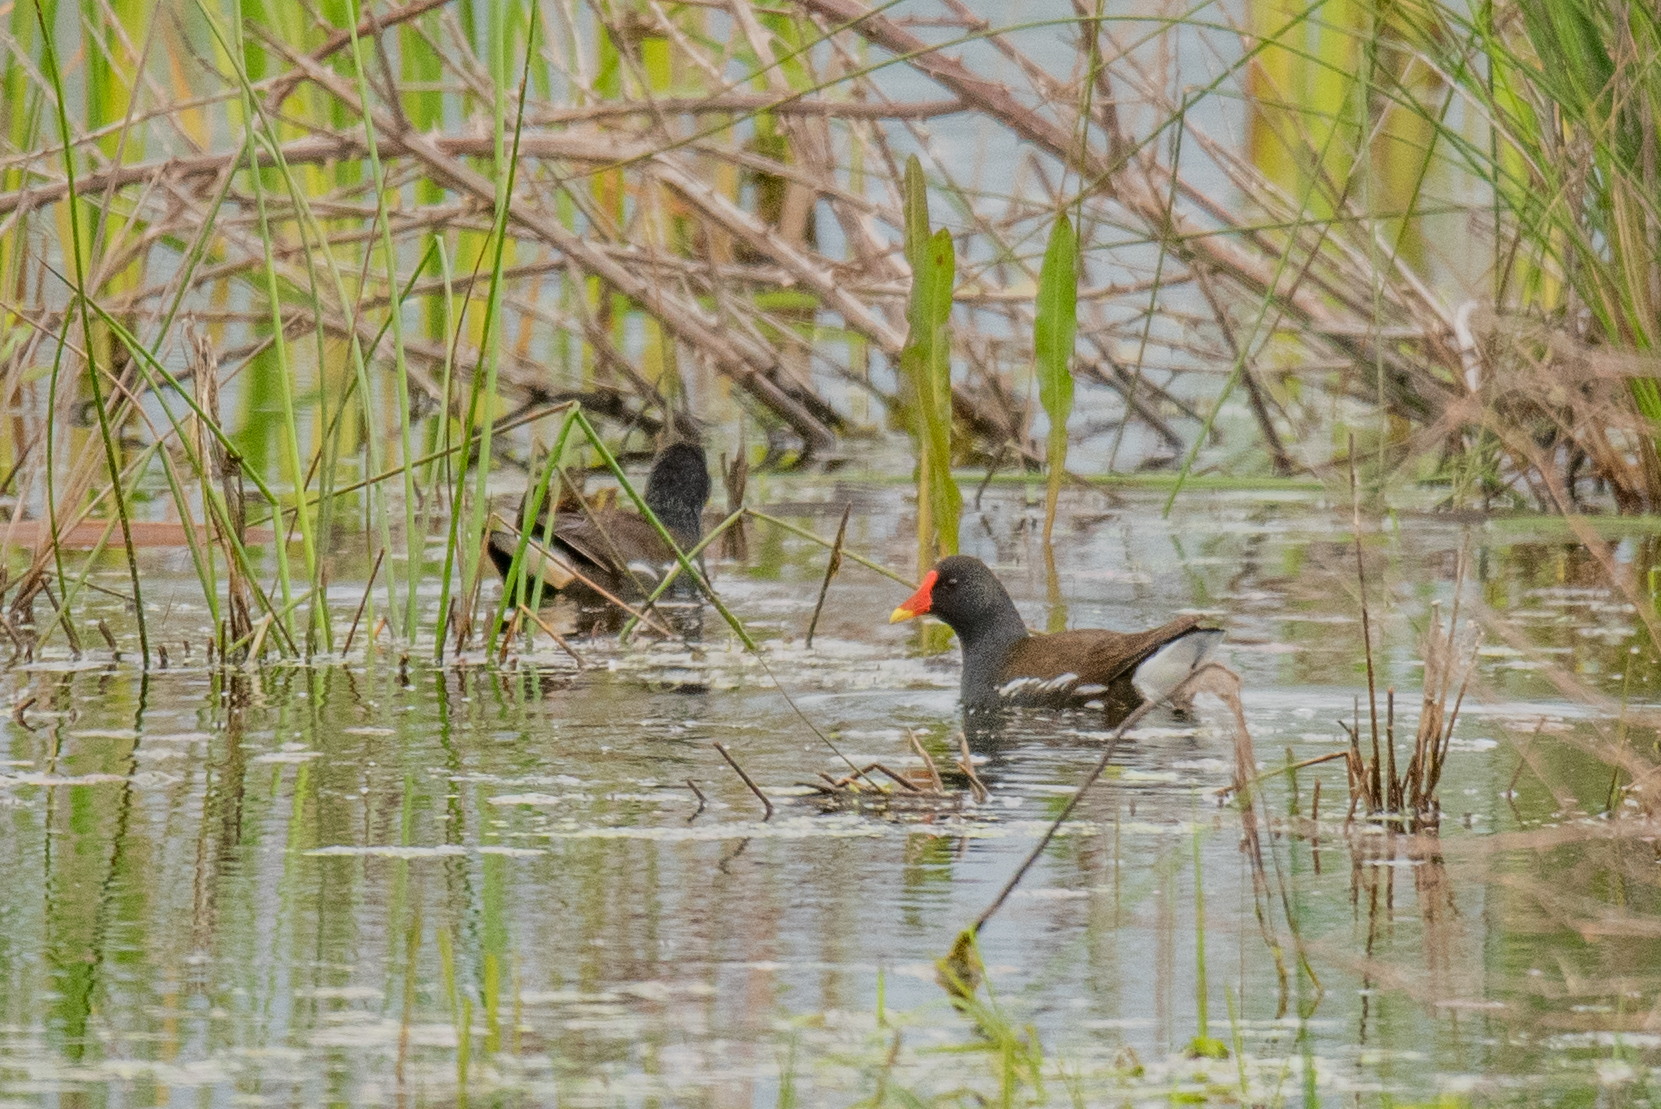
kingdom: Animalia
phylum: Chordata
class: Aves
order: Gruiformes
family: Rallidae
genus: Gallinula
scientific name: Gallinula chloropus
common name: Common moorhen
